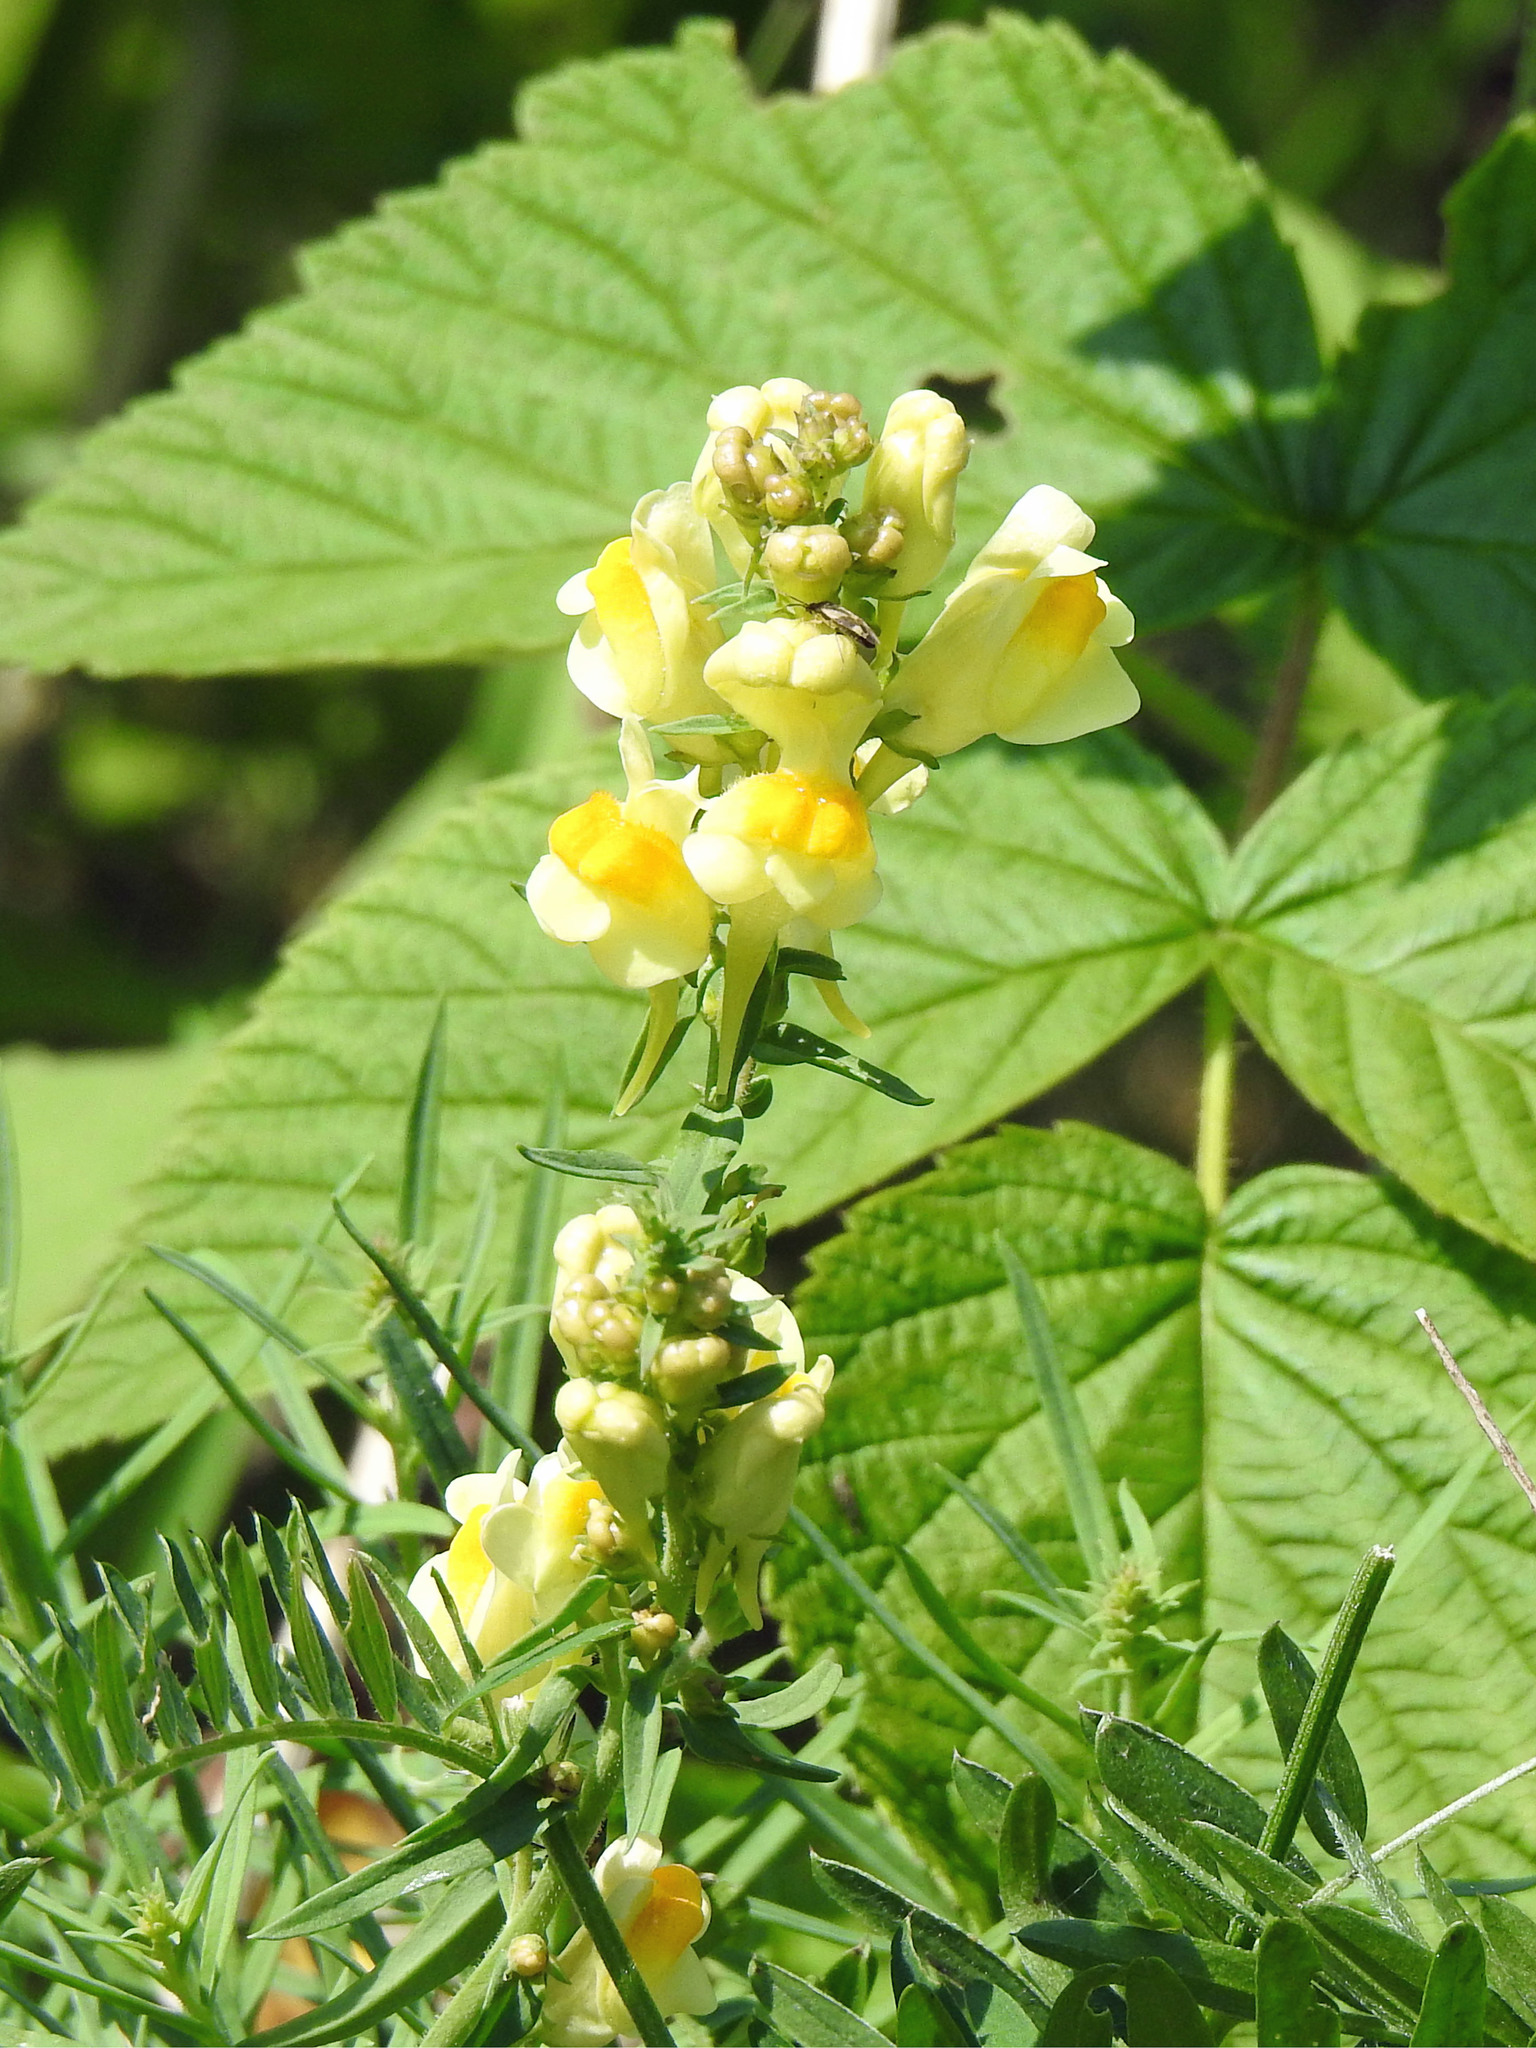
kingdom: Plantae
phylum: Tracheophyta
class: Magnoliopsida
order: Lamiales
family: Plantaginaceae
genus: Linaria
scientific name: Linaria vulgaris
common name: Butter and eggs
